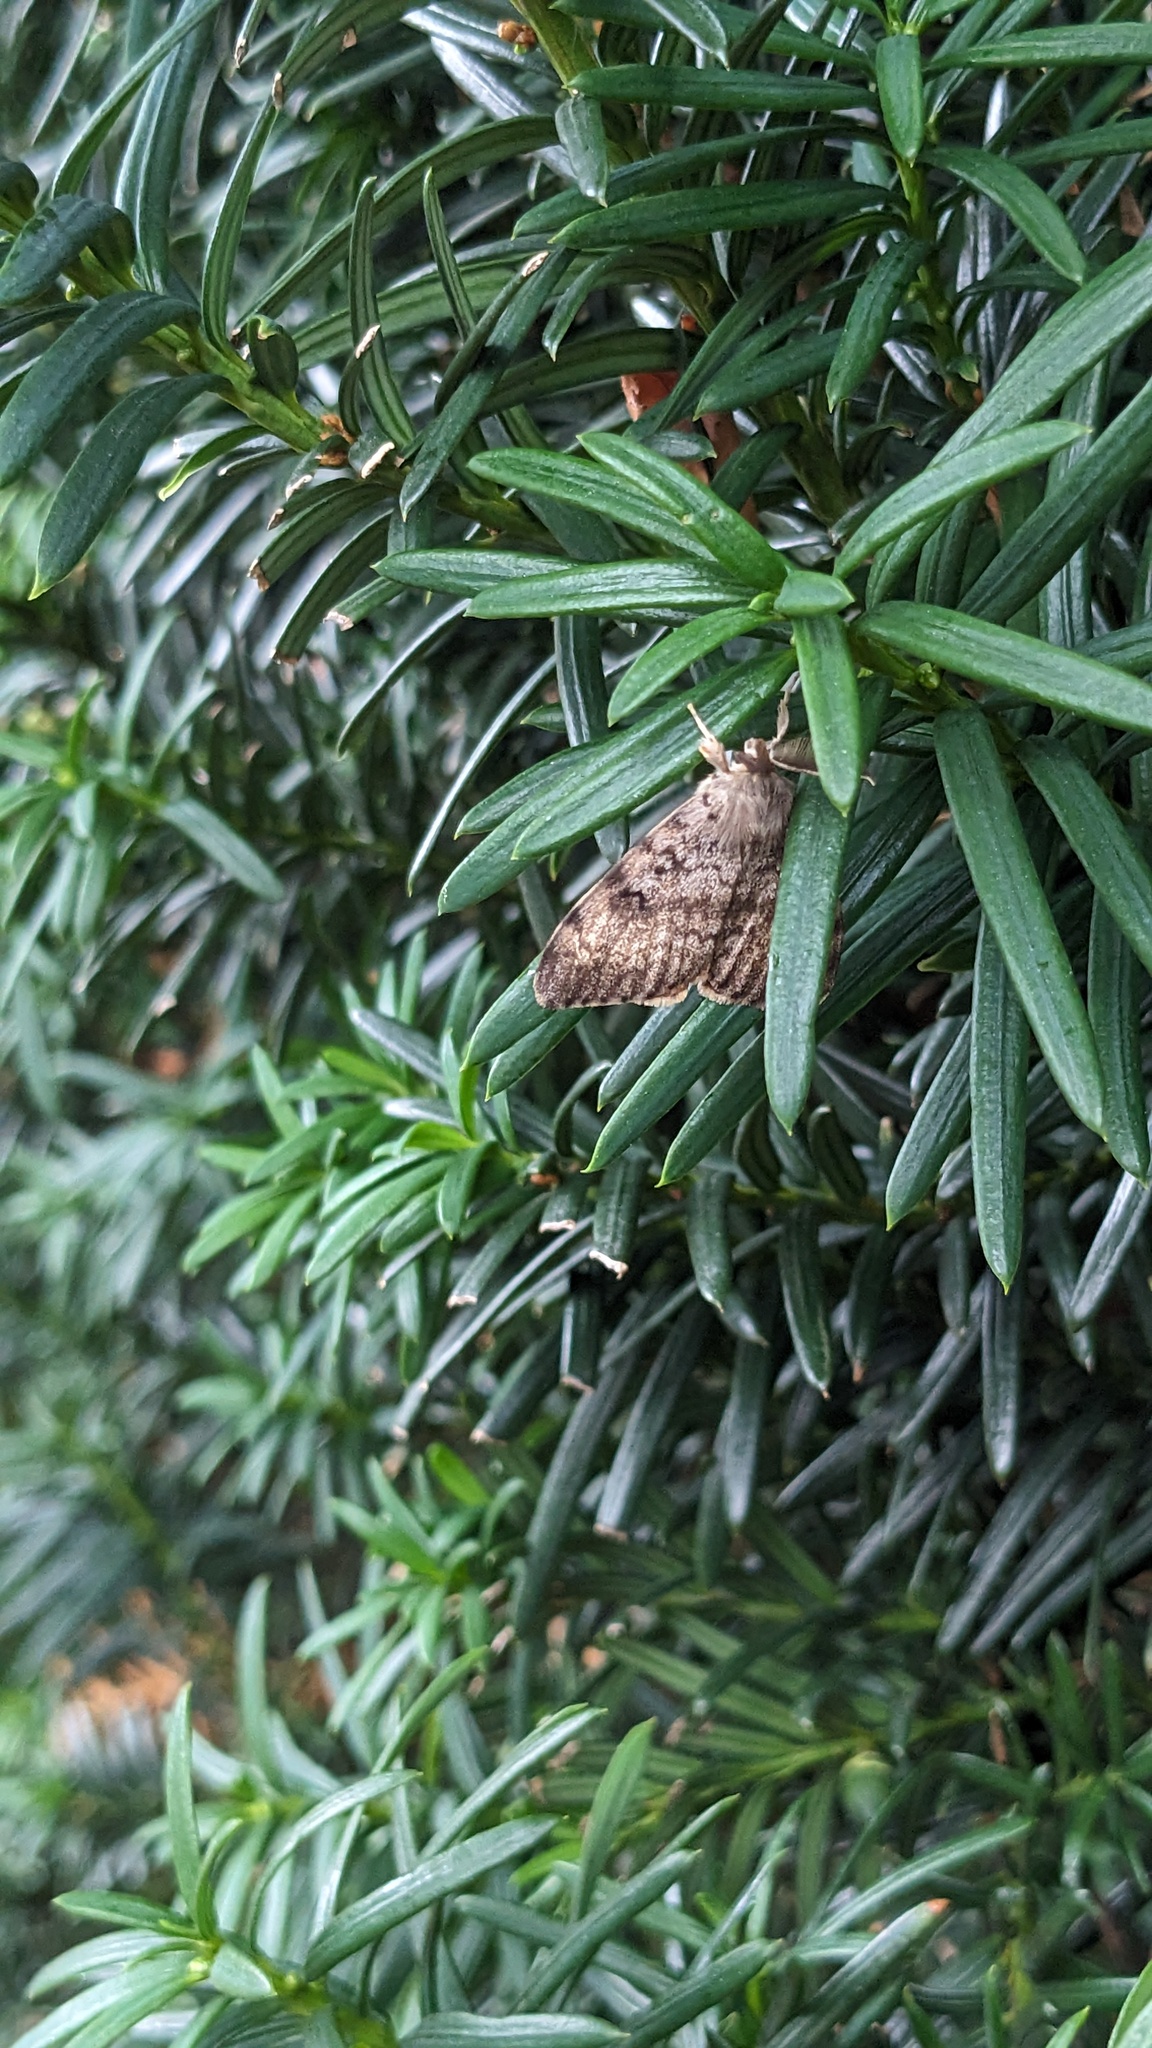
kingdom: Animalia
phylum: Arthropoda
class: Insecta
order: Lepidoptera
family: Erebidae
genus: Lymantria
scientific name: Lymantria dispar
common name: Gypsy moth
